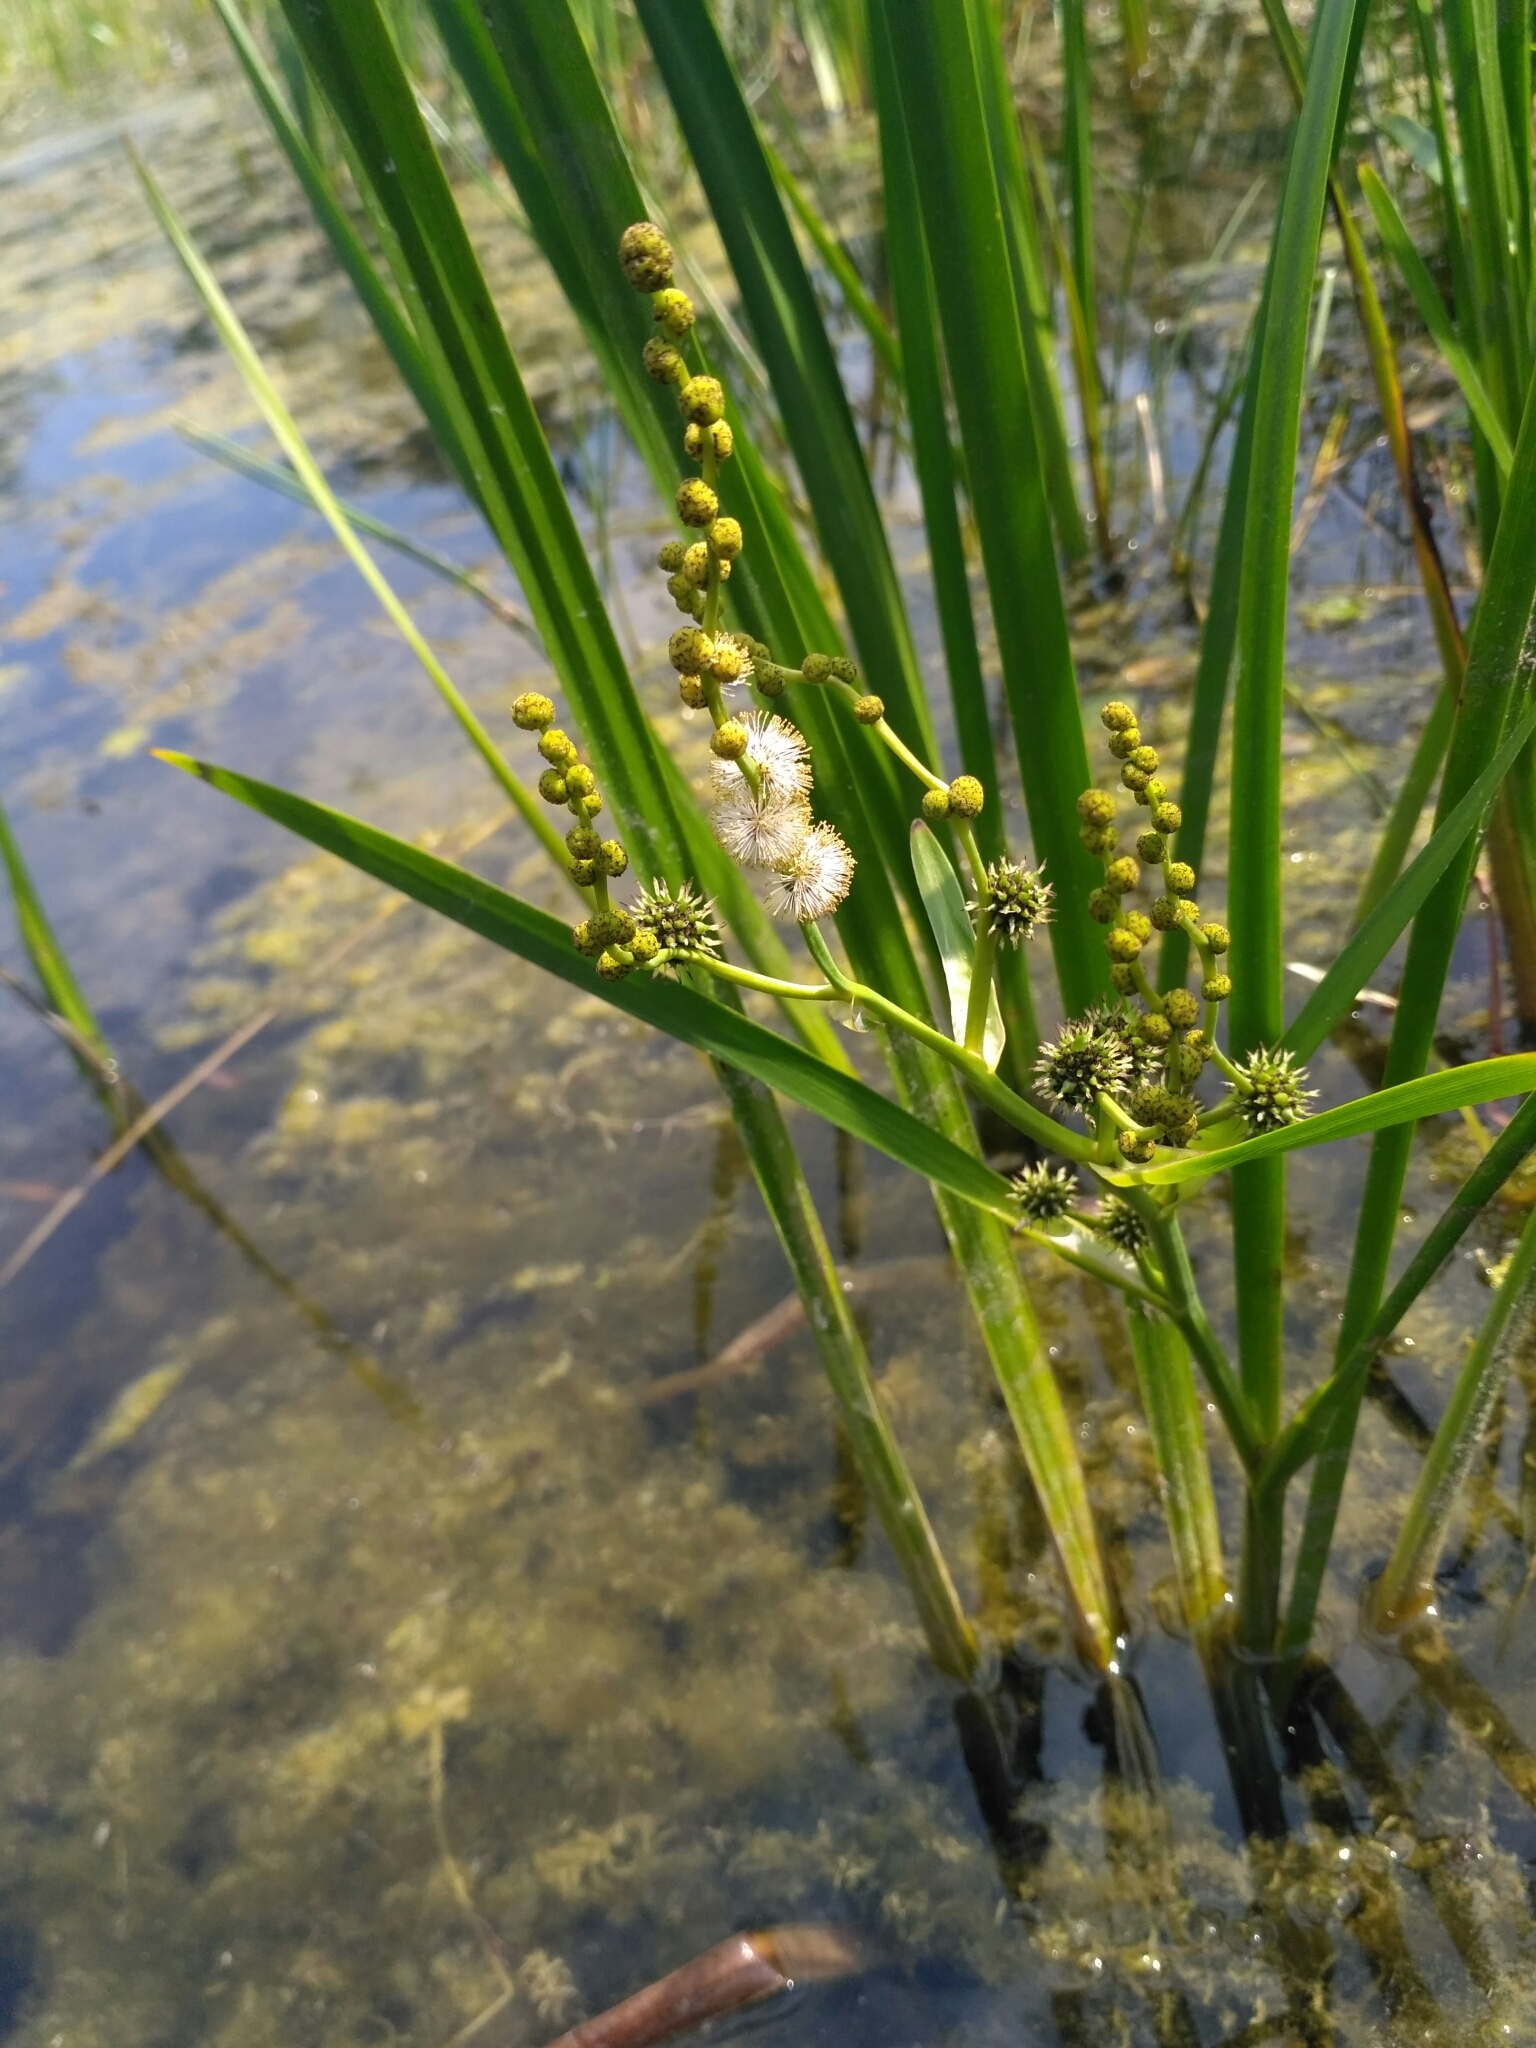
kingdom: Plantae
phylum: Tracheophyta
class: Liliopsida
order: Poales
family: Typhaceae
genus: Sparganium
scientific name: Sparganium erectum
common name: Branched bur-reed
